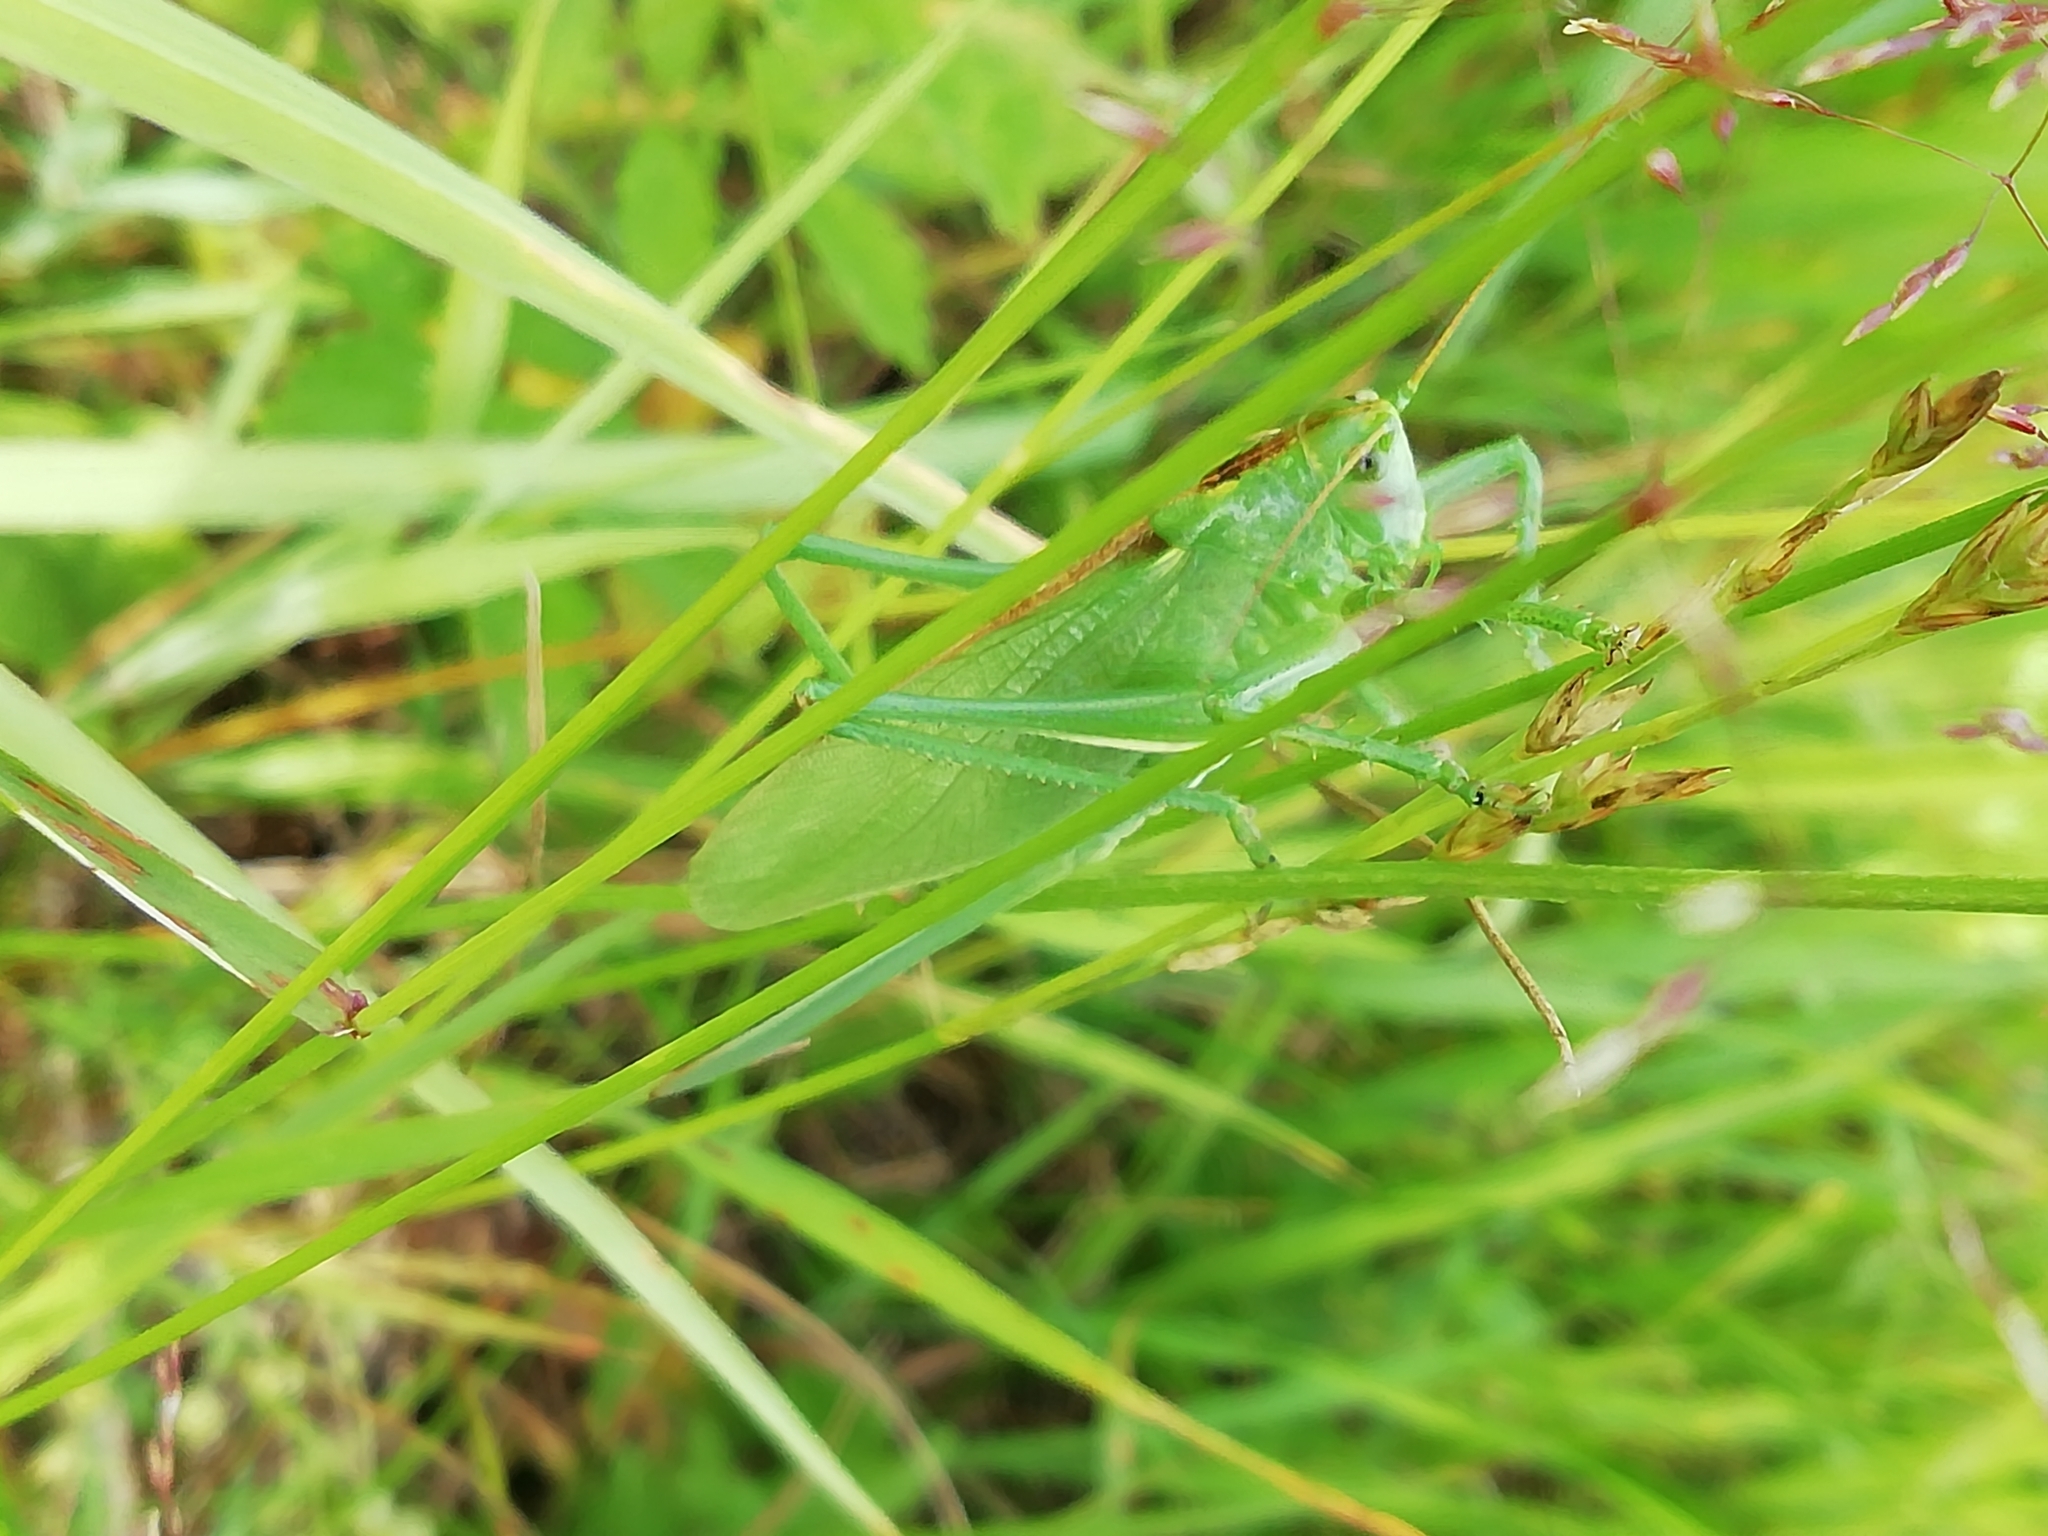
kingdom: Animalia
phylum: Arthropoda
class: Insecta
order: Orthoptera
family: Tettigoniidae
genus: Tettigonia
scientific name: Tettigonia cantans
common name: Upland green bush-cricket
